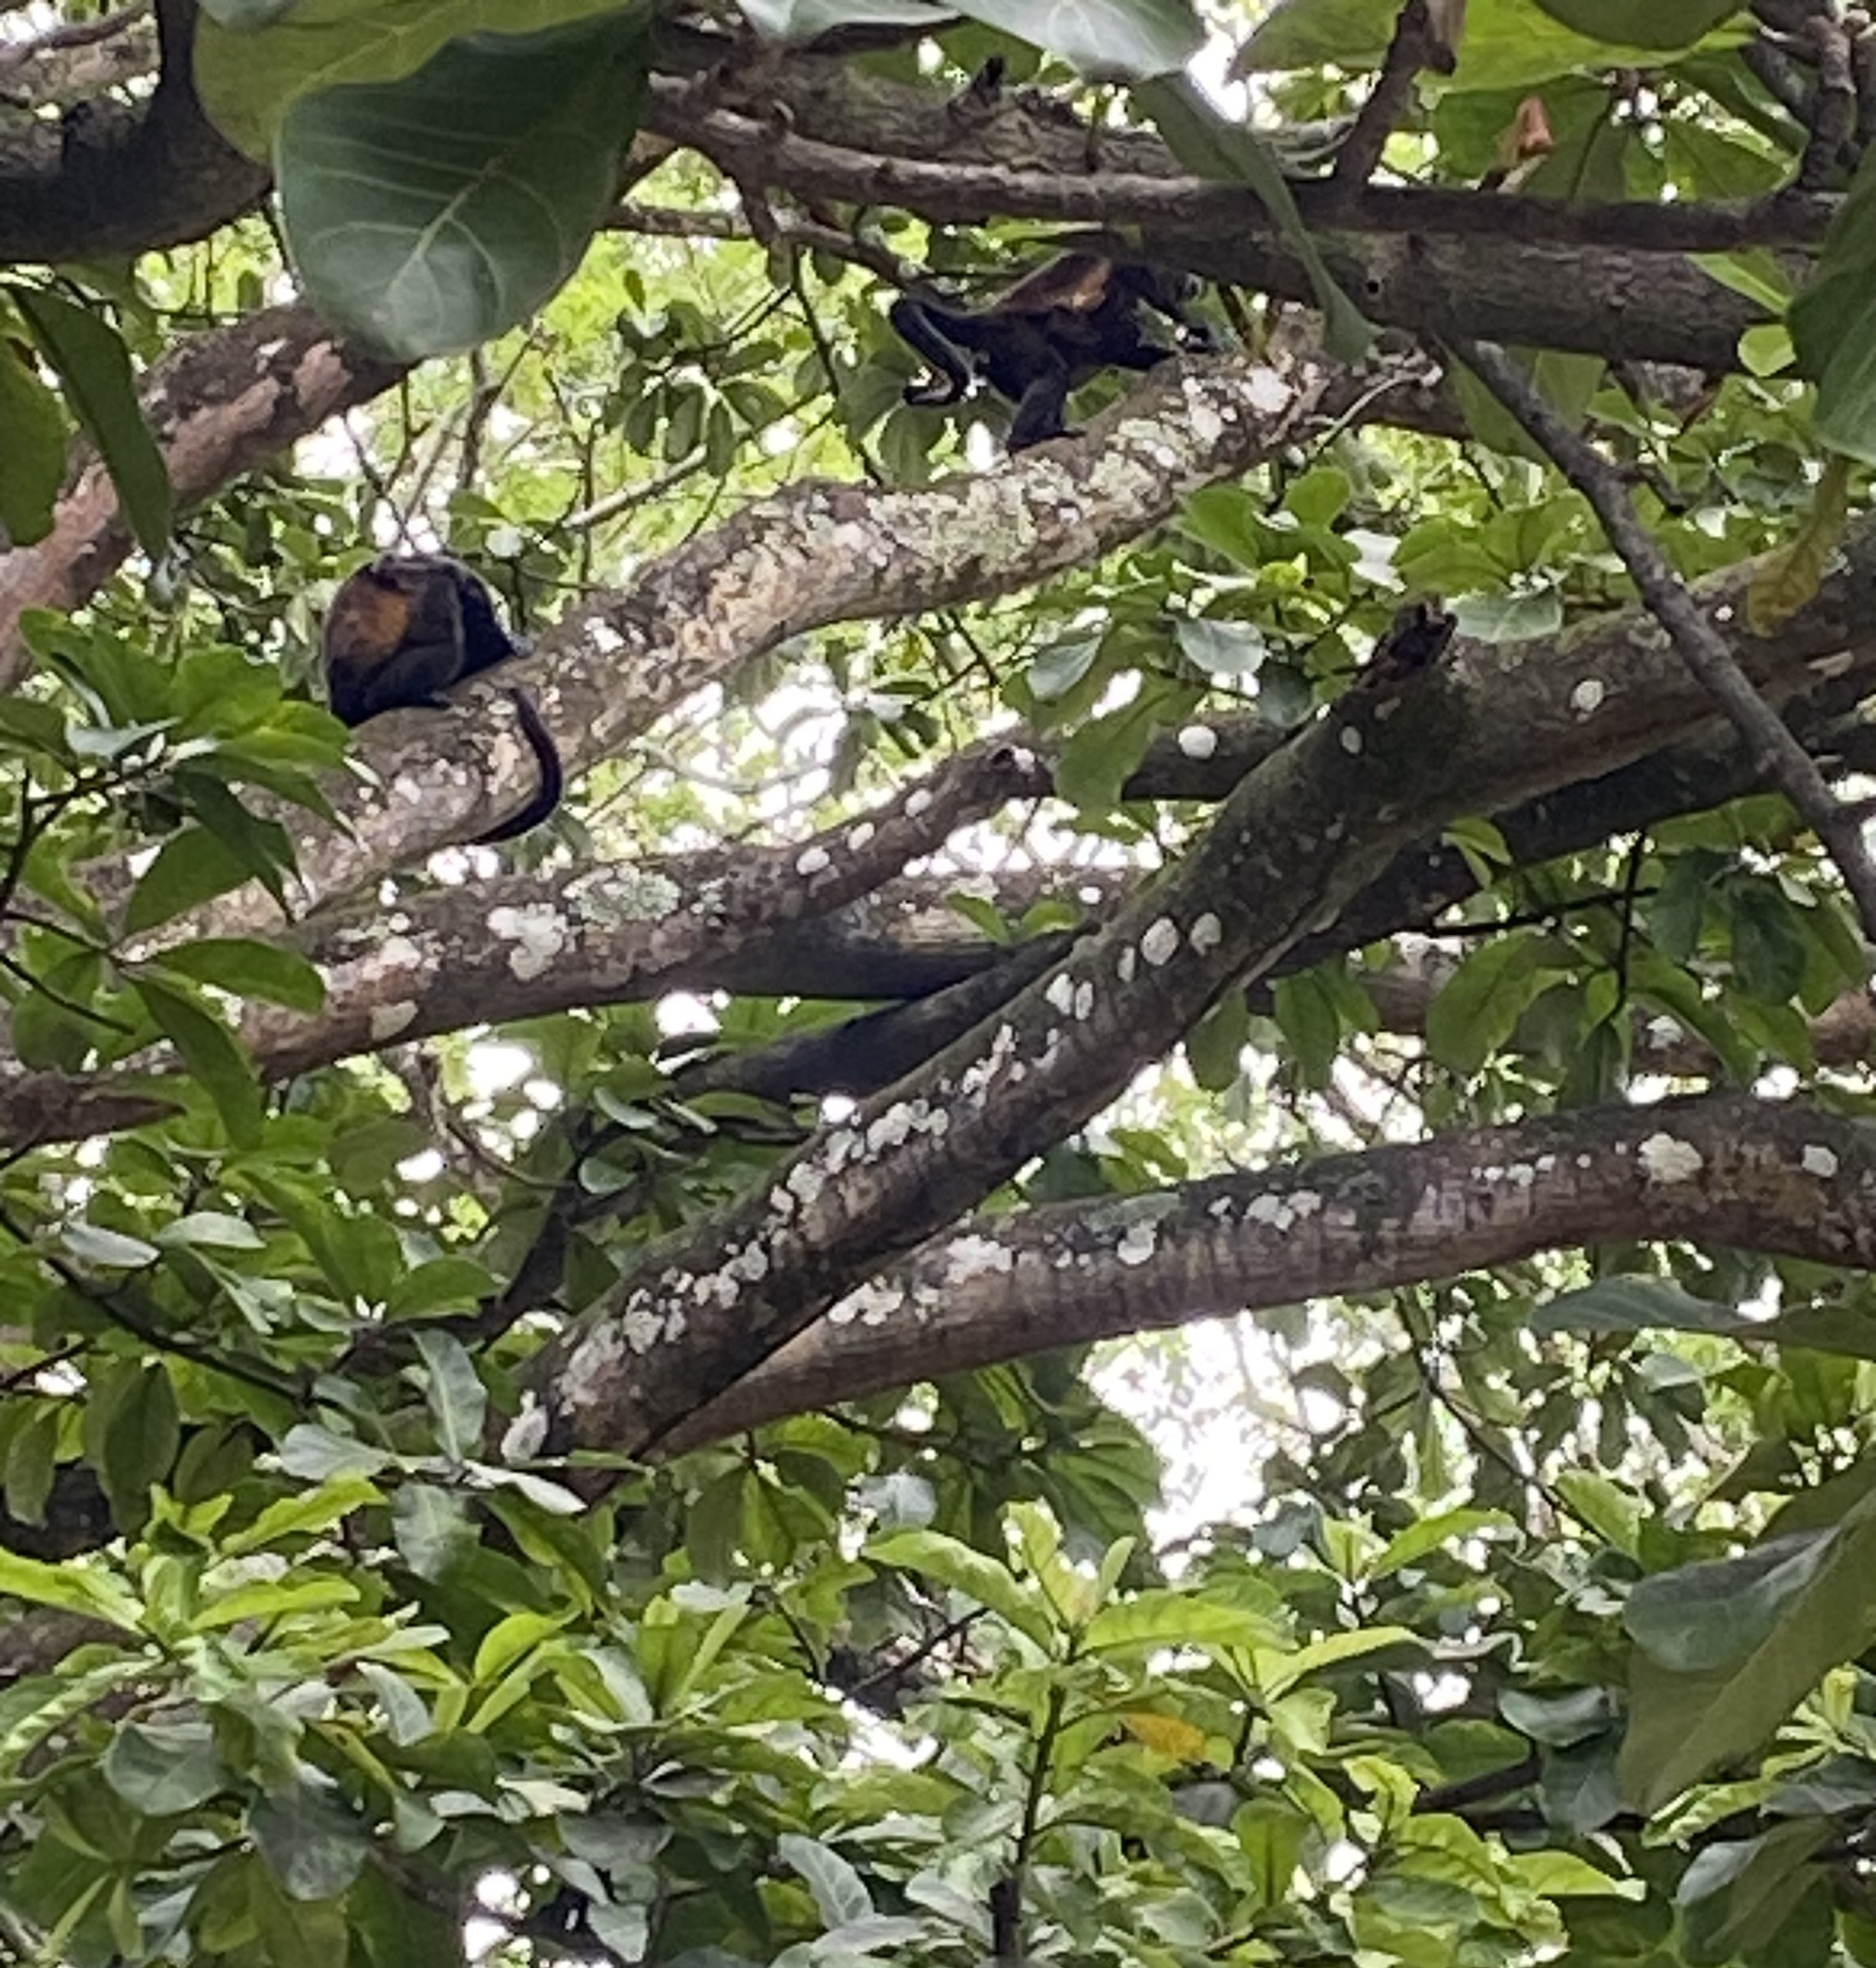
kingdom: Animalia
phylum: Chordata
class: Mammalia
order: Primates
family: Atelidae
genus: Alouatta
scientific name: Alouatta palliata
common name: Mantled howler
